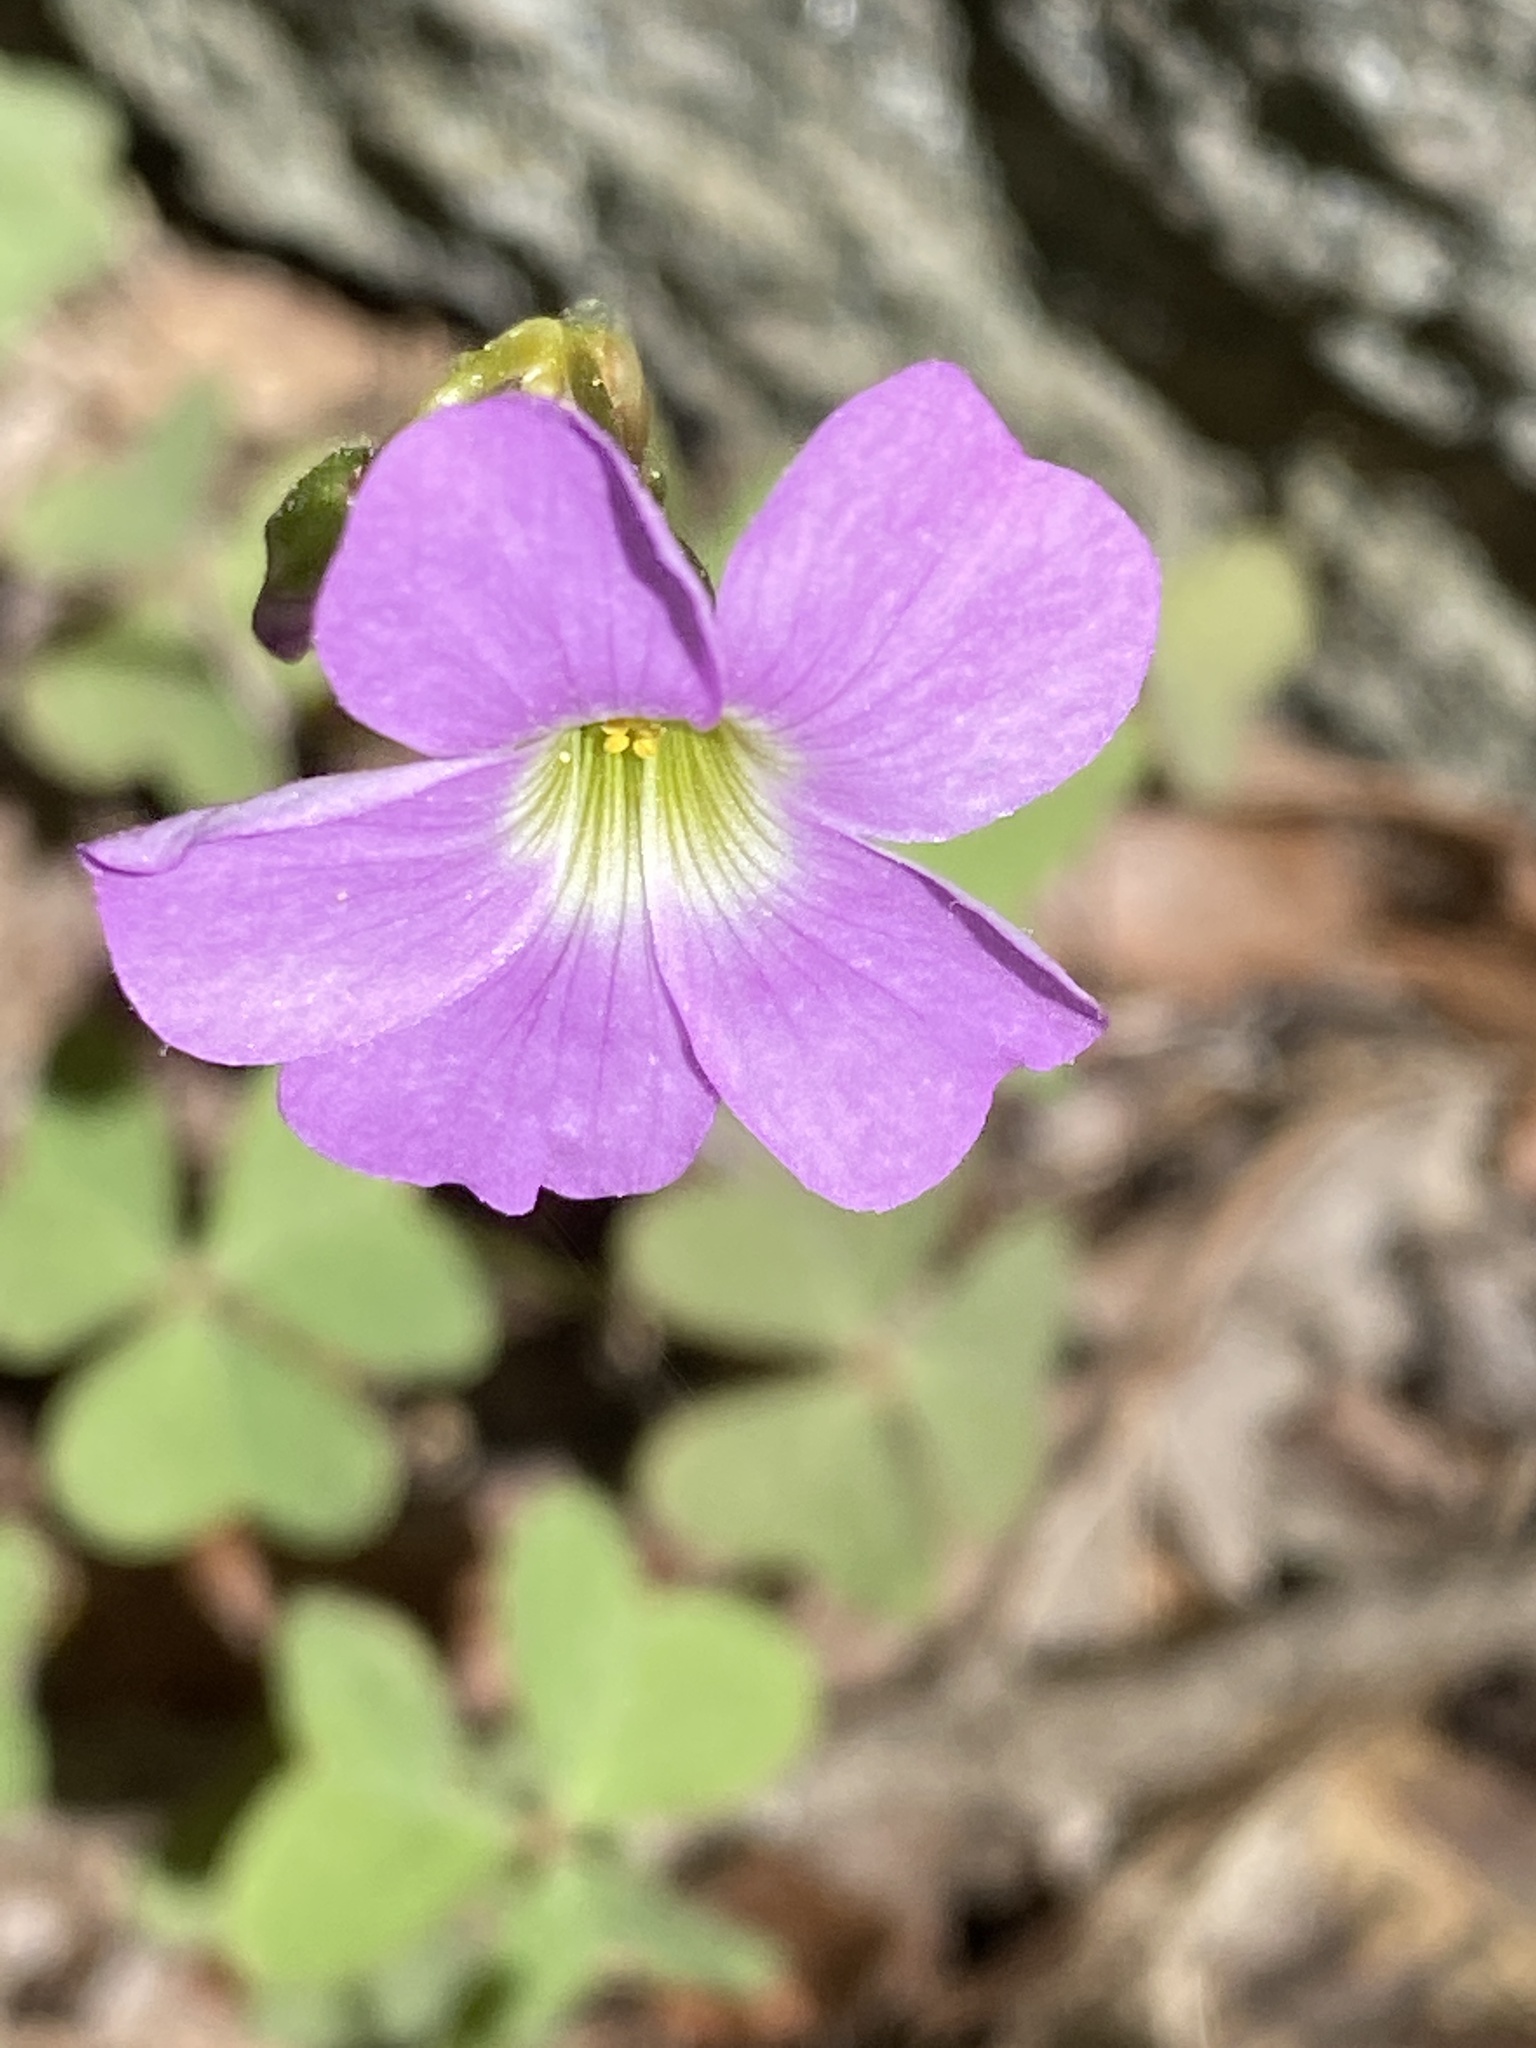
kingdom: Plantae
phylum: Tracheophyta
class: Magnoliopsida
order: Oxalidales
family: Oxalidaceae
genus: Oxalis
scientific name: Oxalis violacea
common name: Violet wood-sorrel
